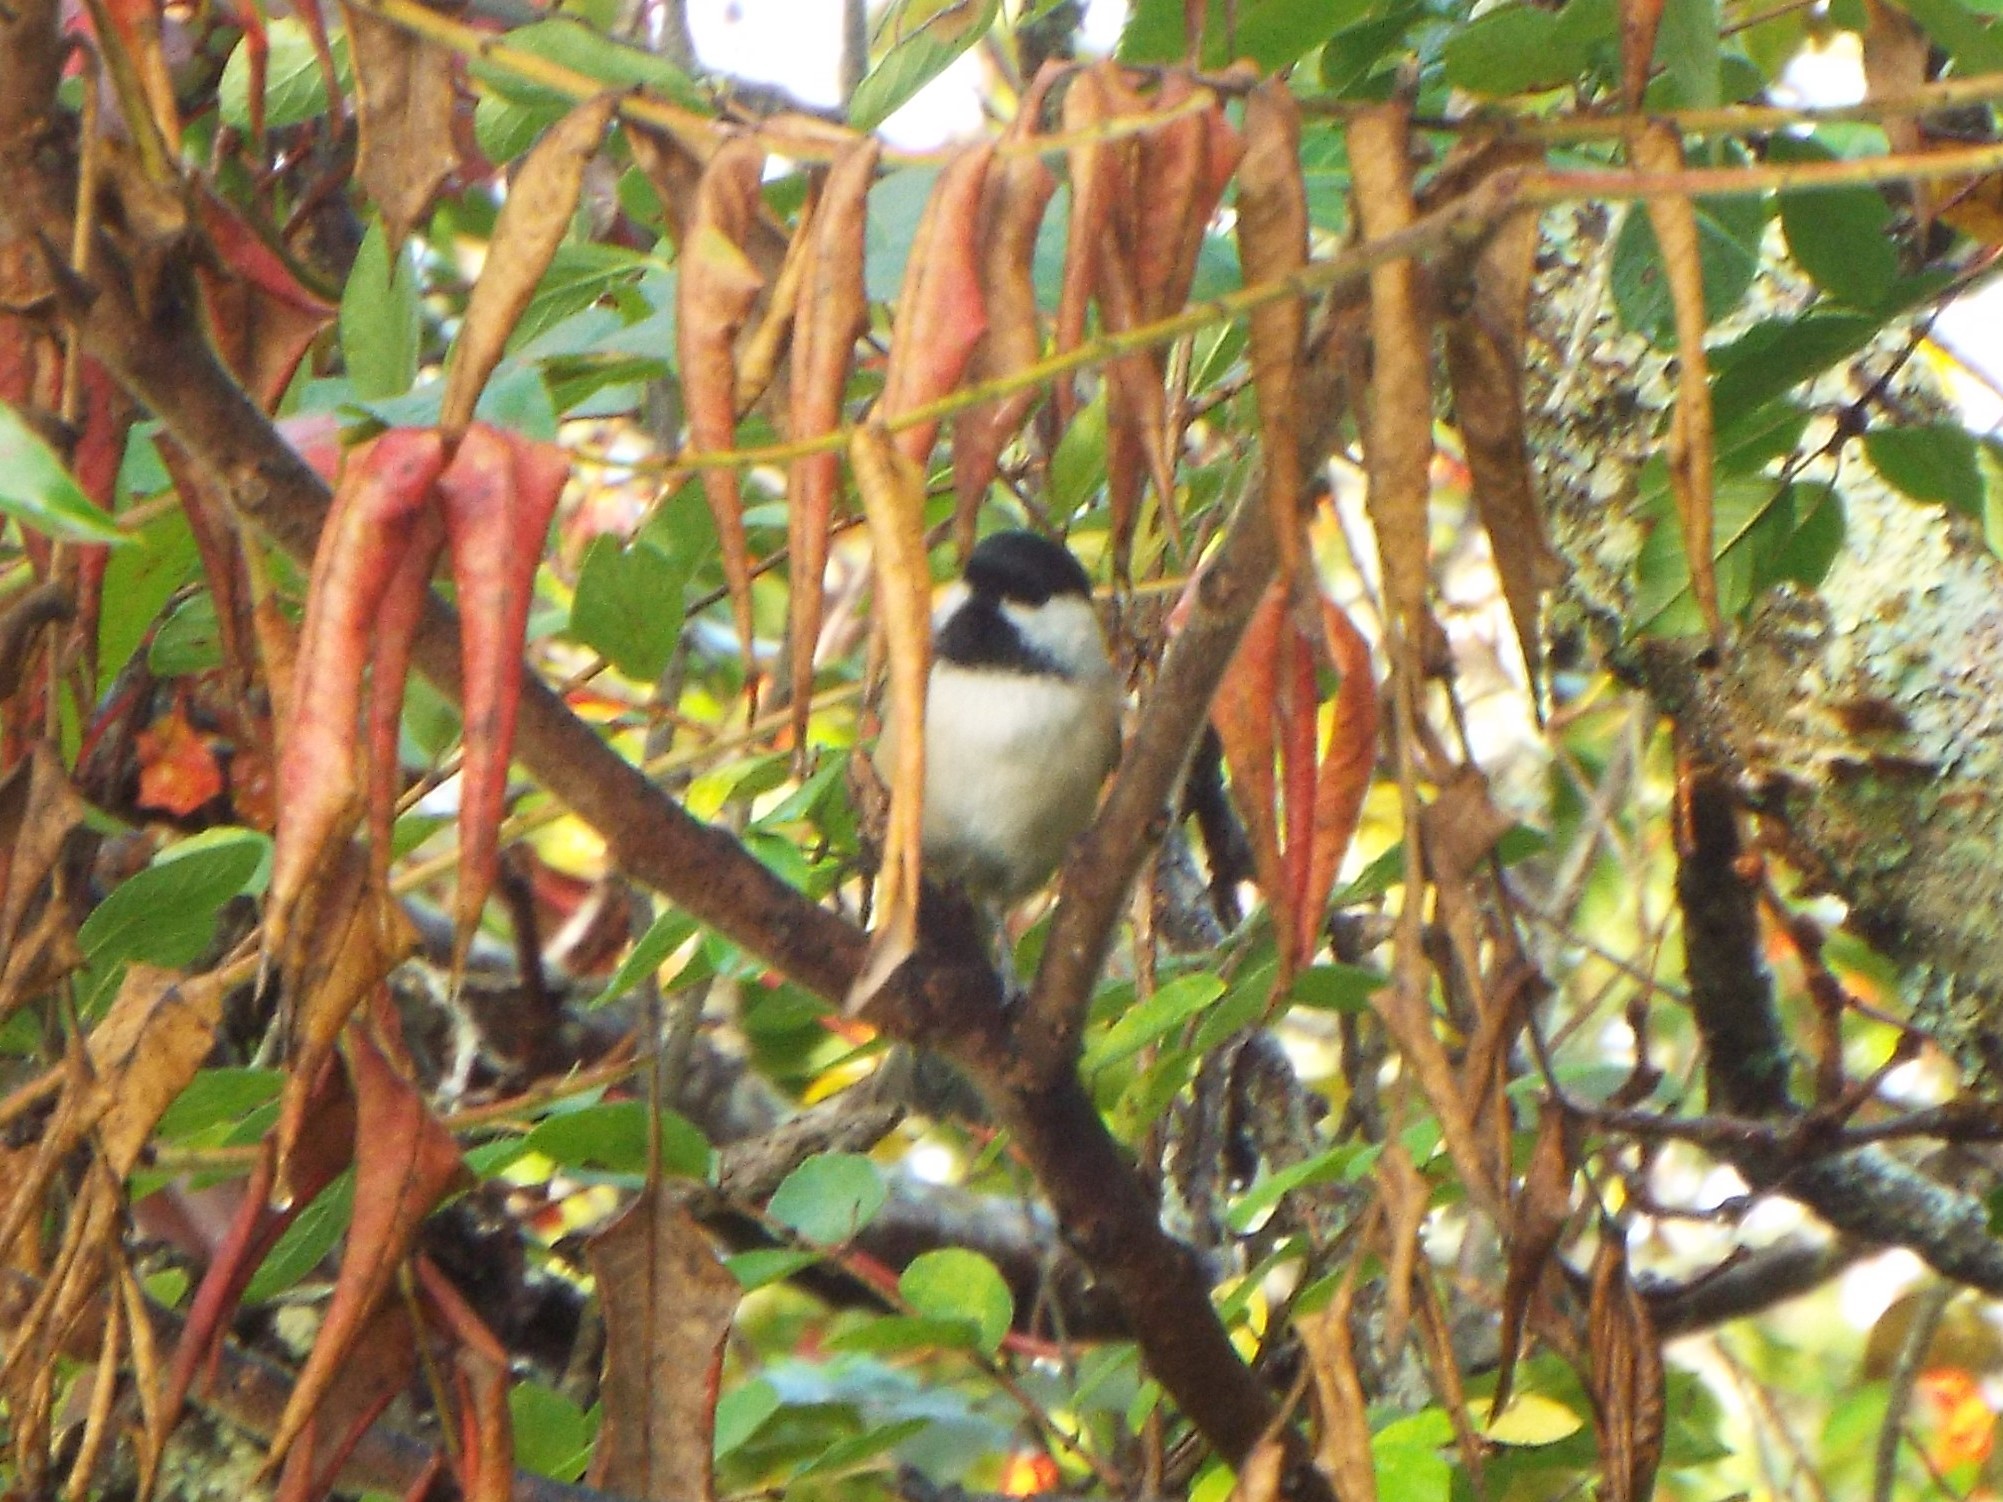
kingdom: Animalia
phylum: Chordata
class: Aves
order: Passeriformes
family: Paridae
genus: Poecile
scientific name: Poecile atricapillus
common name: Black-capped chickadee
